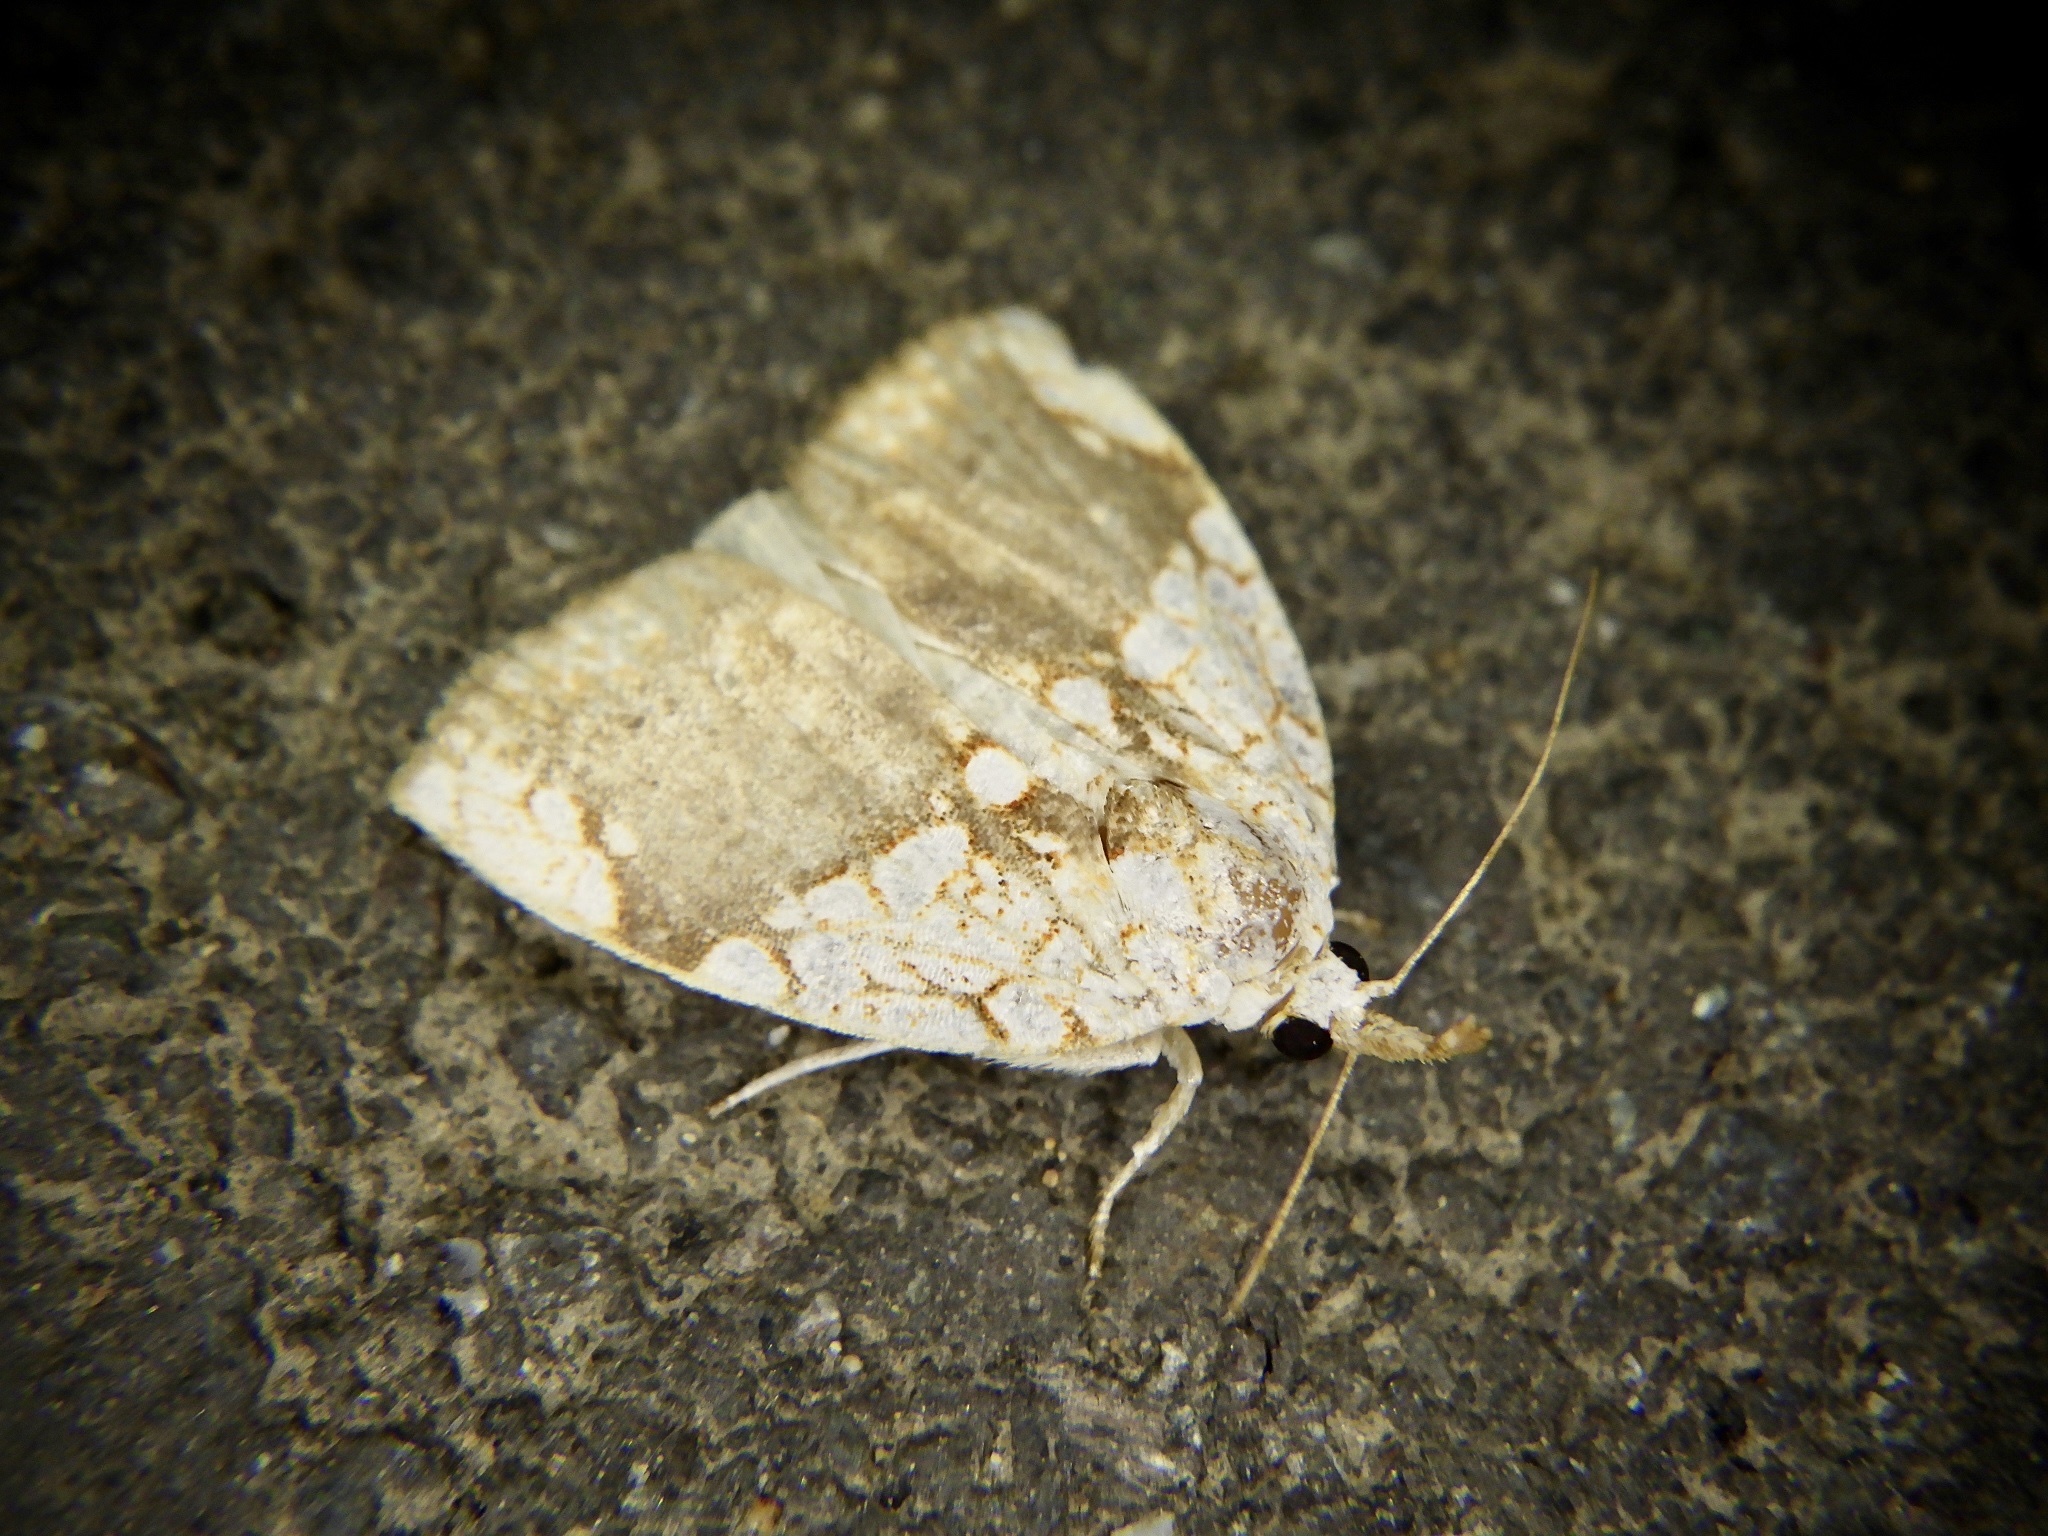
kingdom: Animalia
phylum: Arthropoda
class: Insecta
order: Lepidoptera
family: Nolidae
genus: Gabala
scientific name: Gabala argentata
